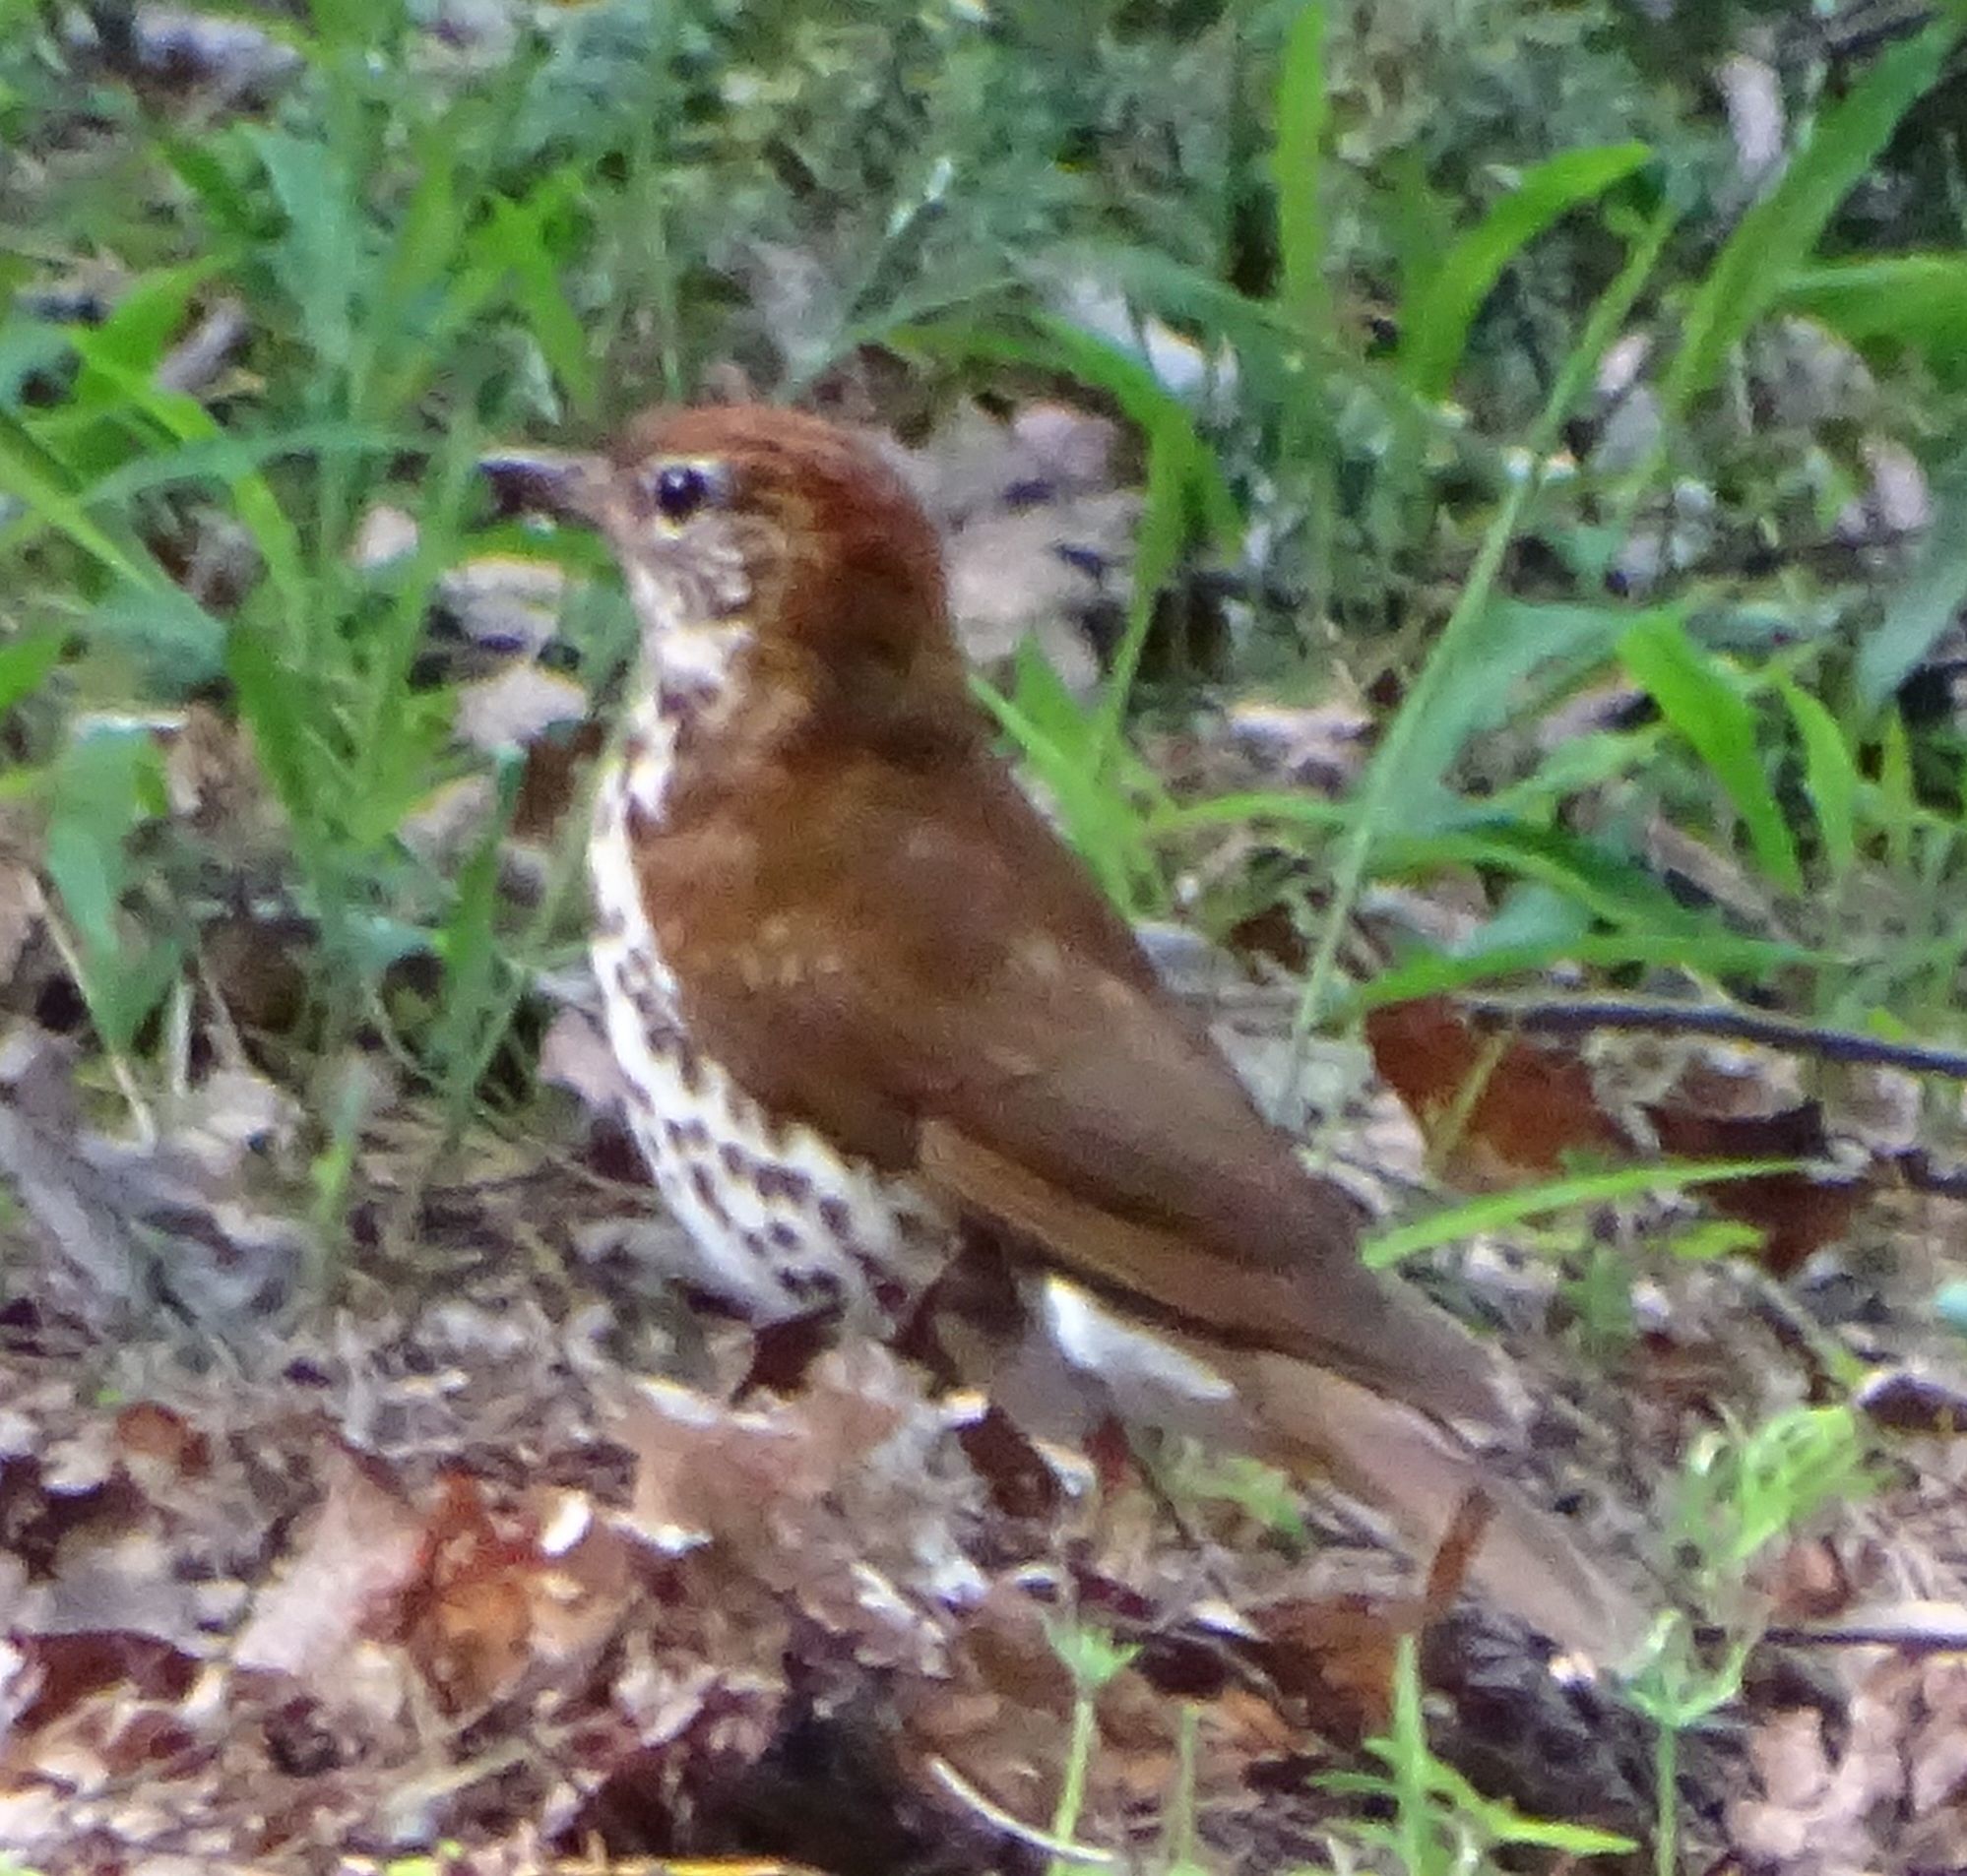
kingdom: Animalia
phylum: Chordata
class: Aves
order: Passeriformes
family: Turdidae
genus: Hylocichla
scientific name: Hylocichla mustelina
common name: Wood thrush
